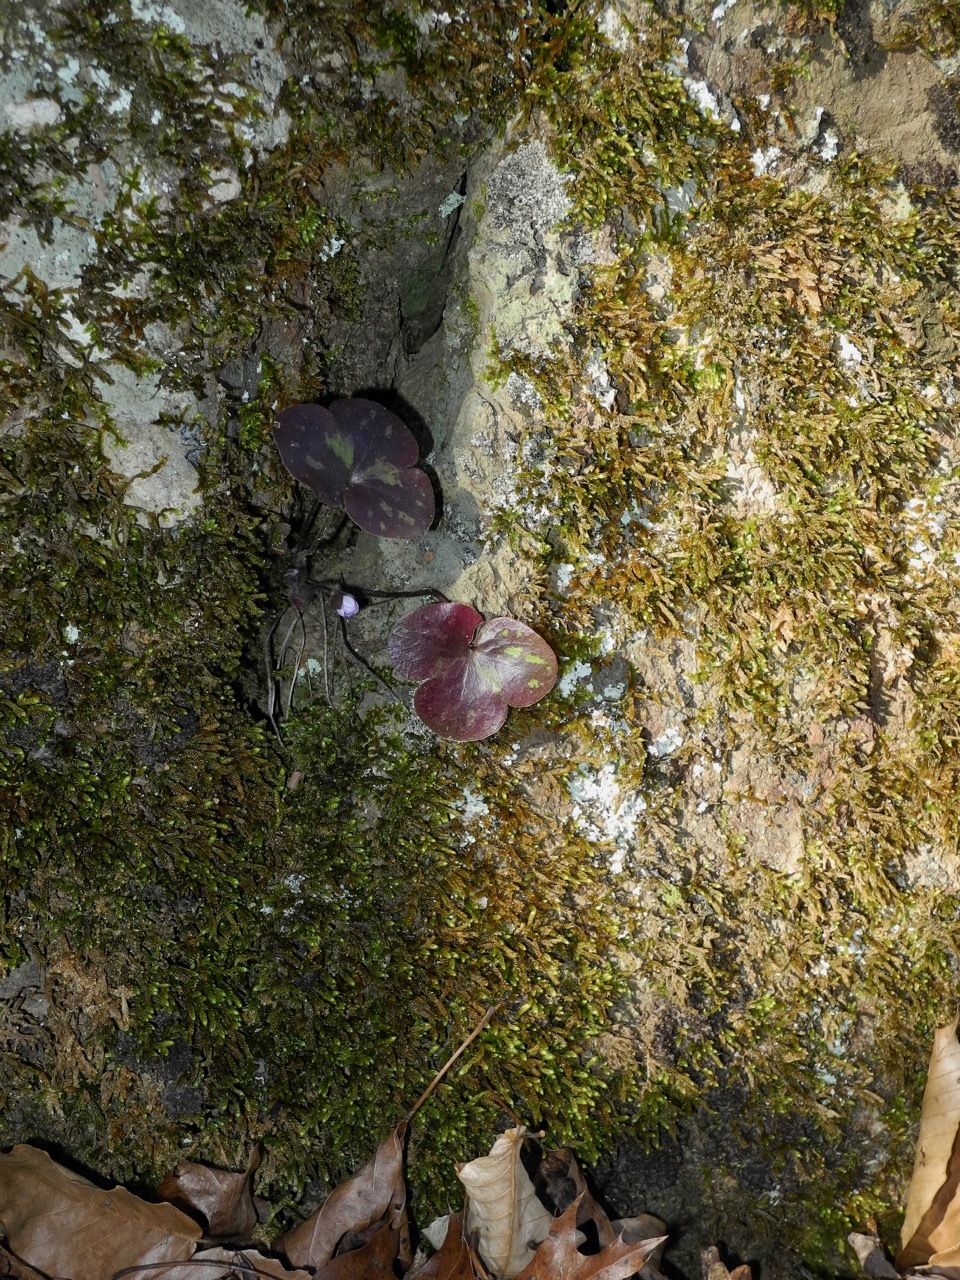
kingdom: Plantae
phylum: Tracheophyta
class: Magnoliopsida
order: Ranunculales
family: Ranunculaceae
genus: Hepatica
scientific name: Hepatica americana
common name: American hepatica
